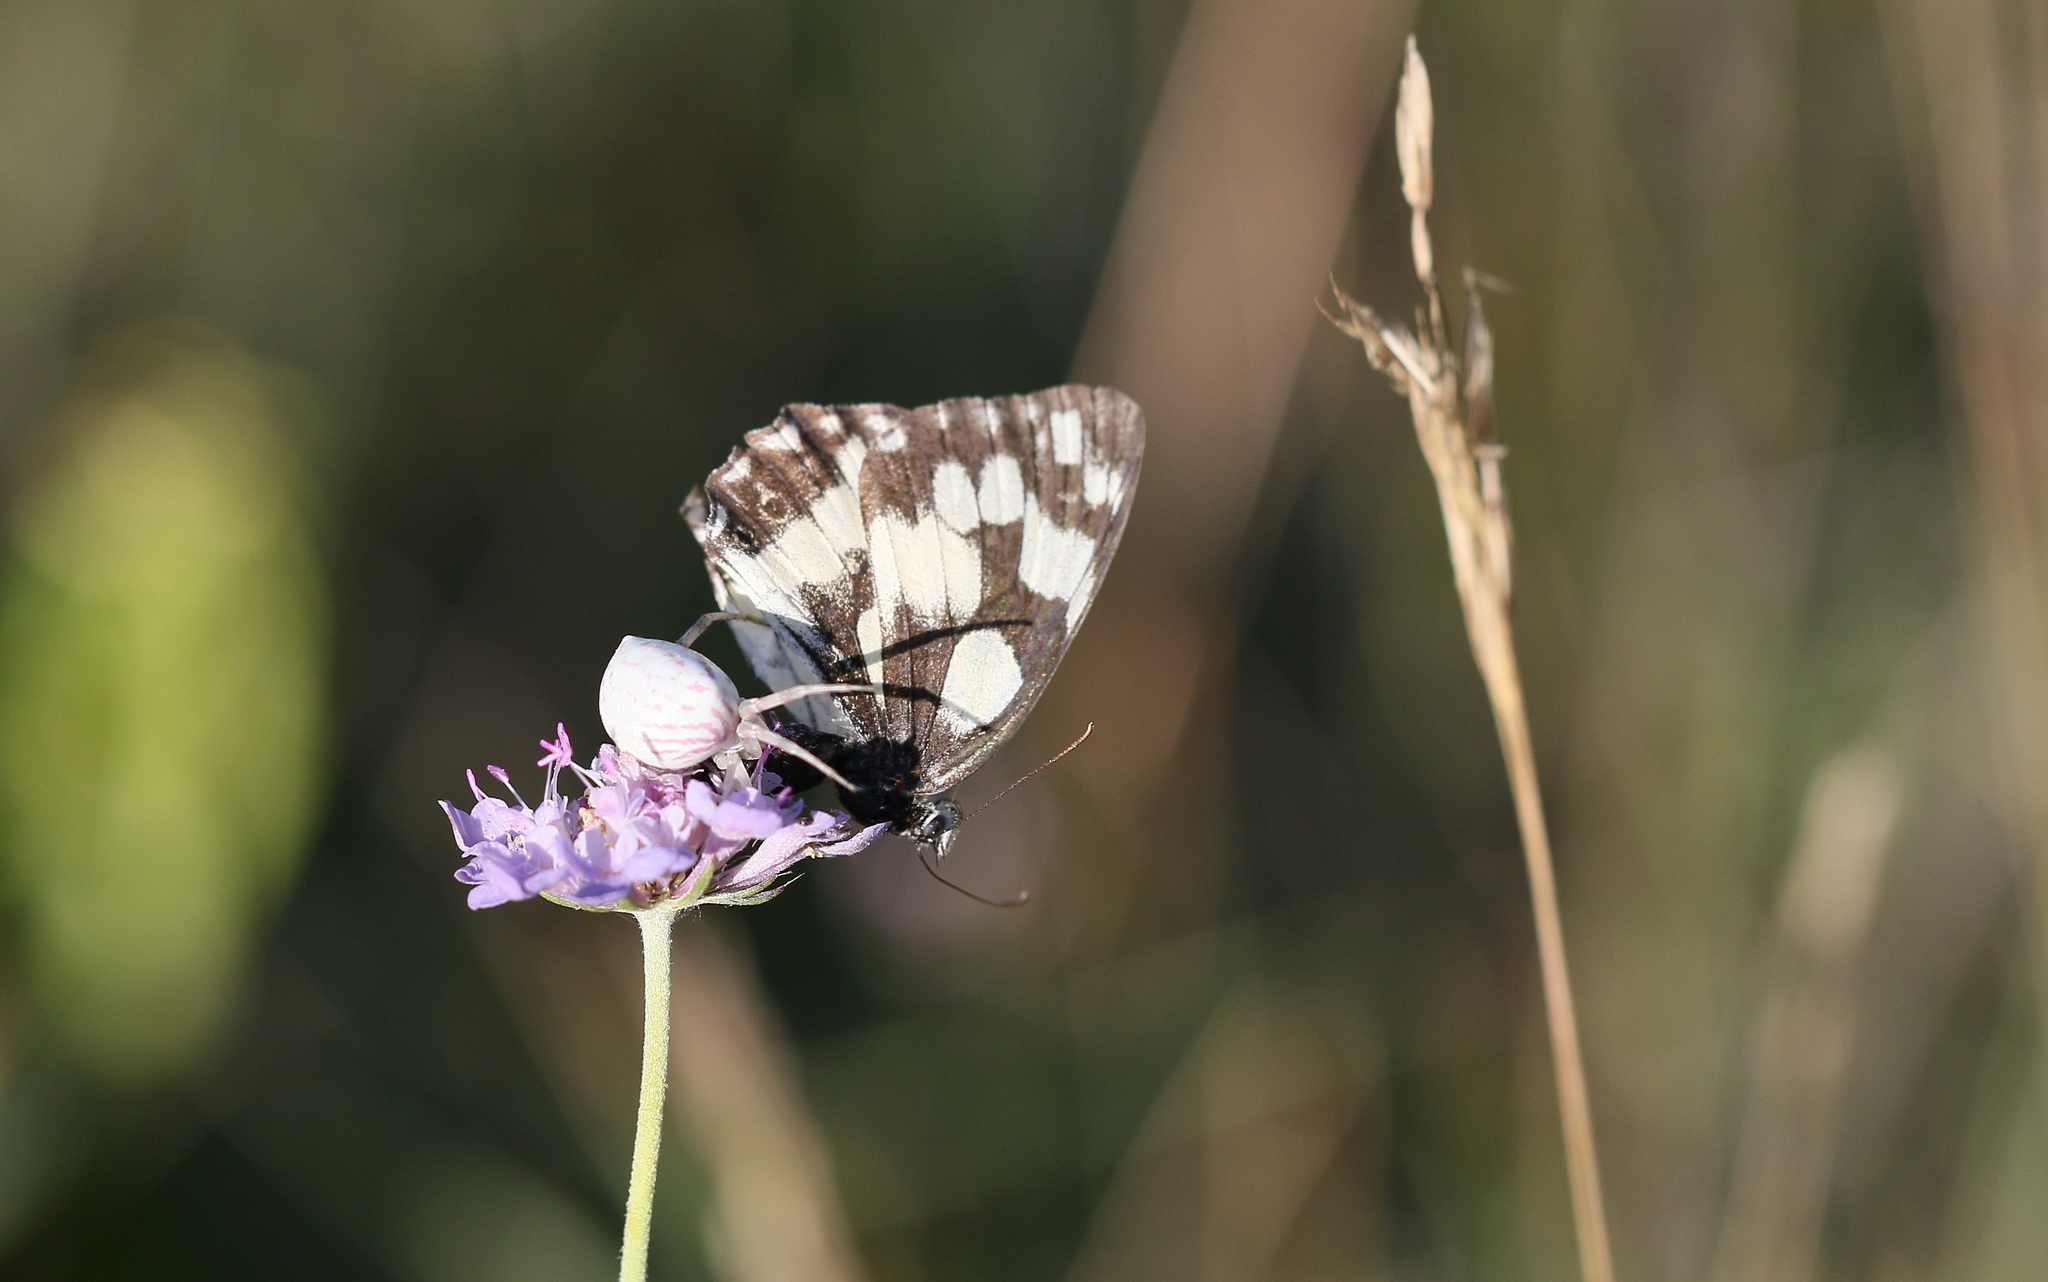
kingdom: Animalia
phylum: Arthropoda
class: Arachnida
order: Araneae
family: Thomisidae
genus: Thomisus
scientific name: Thomisus onustus
